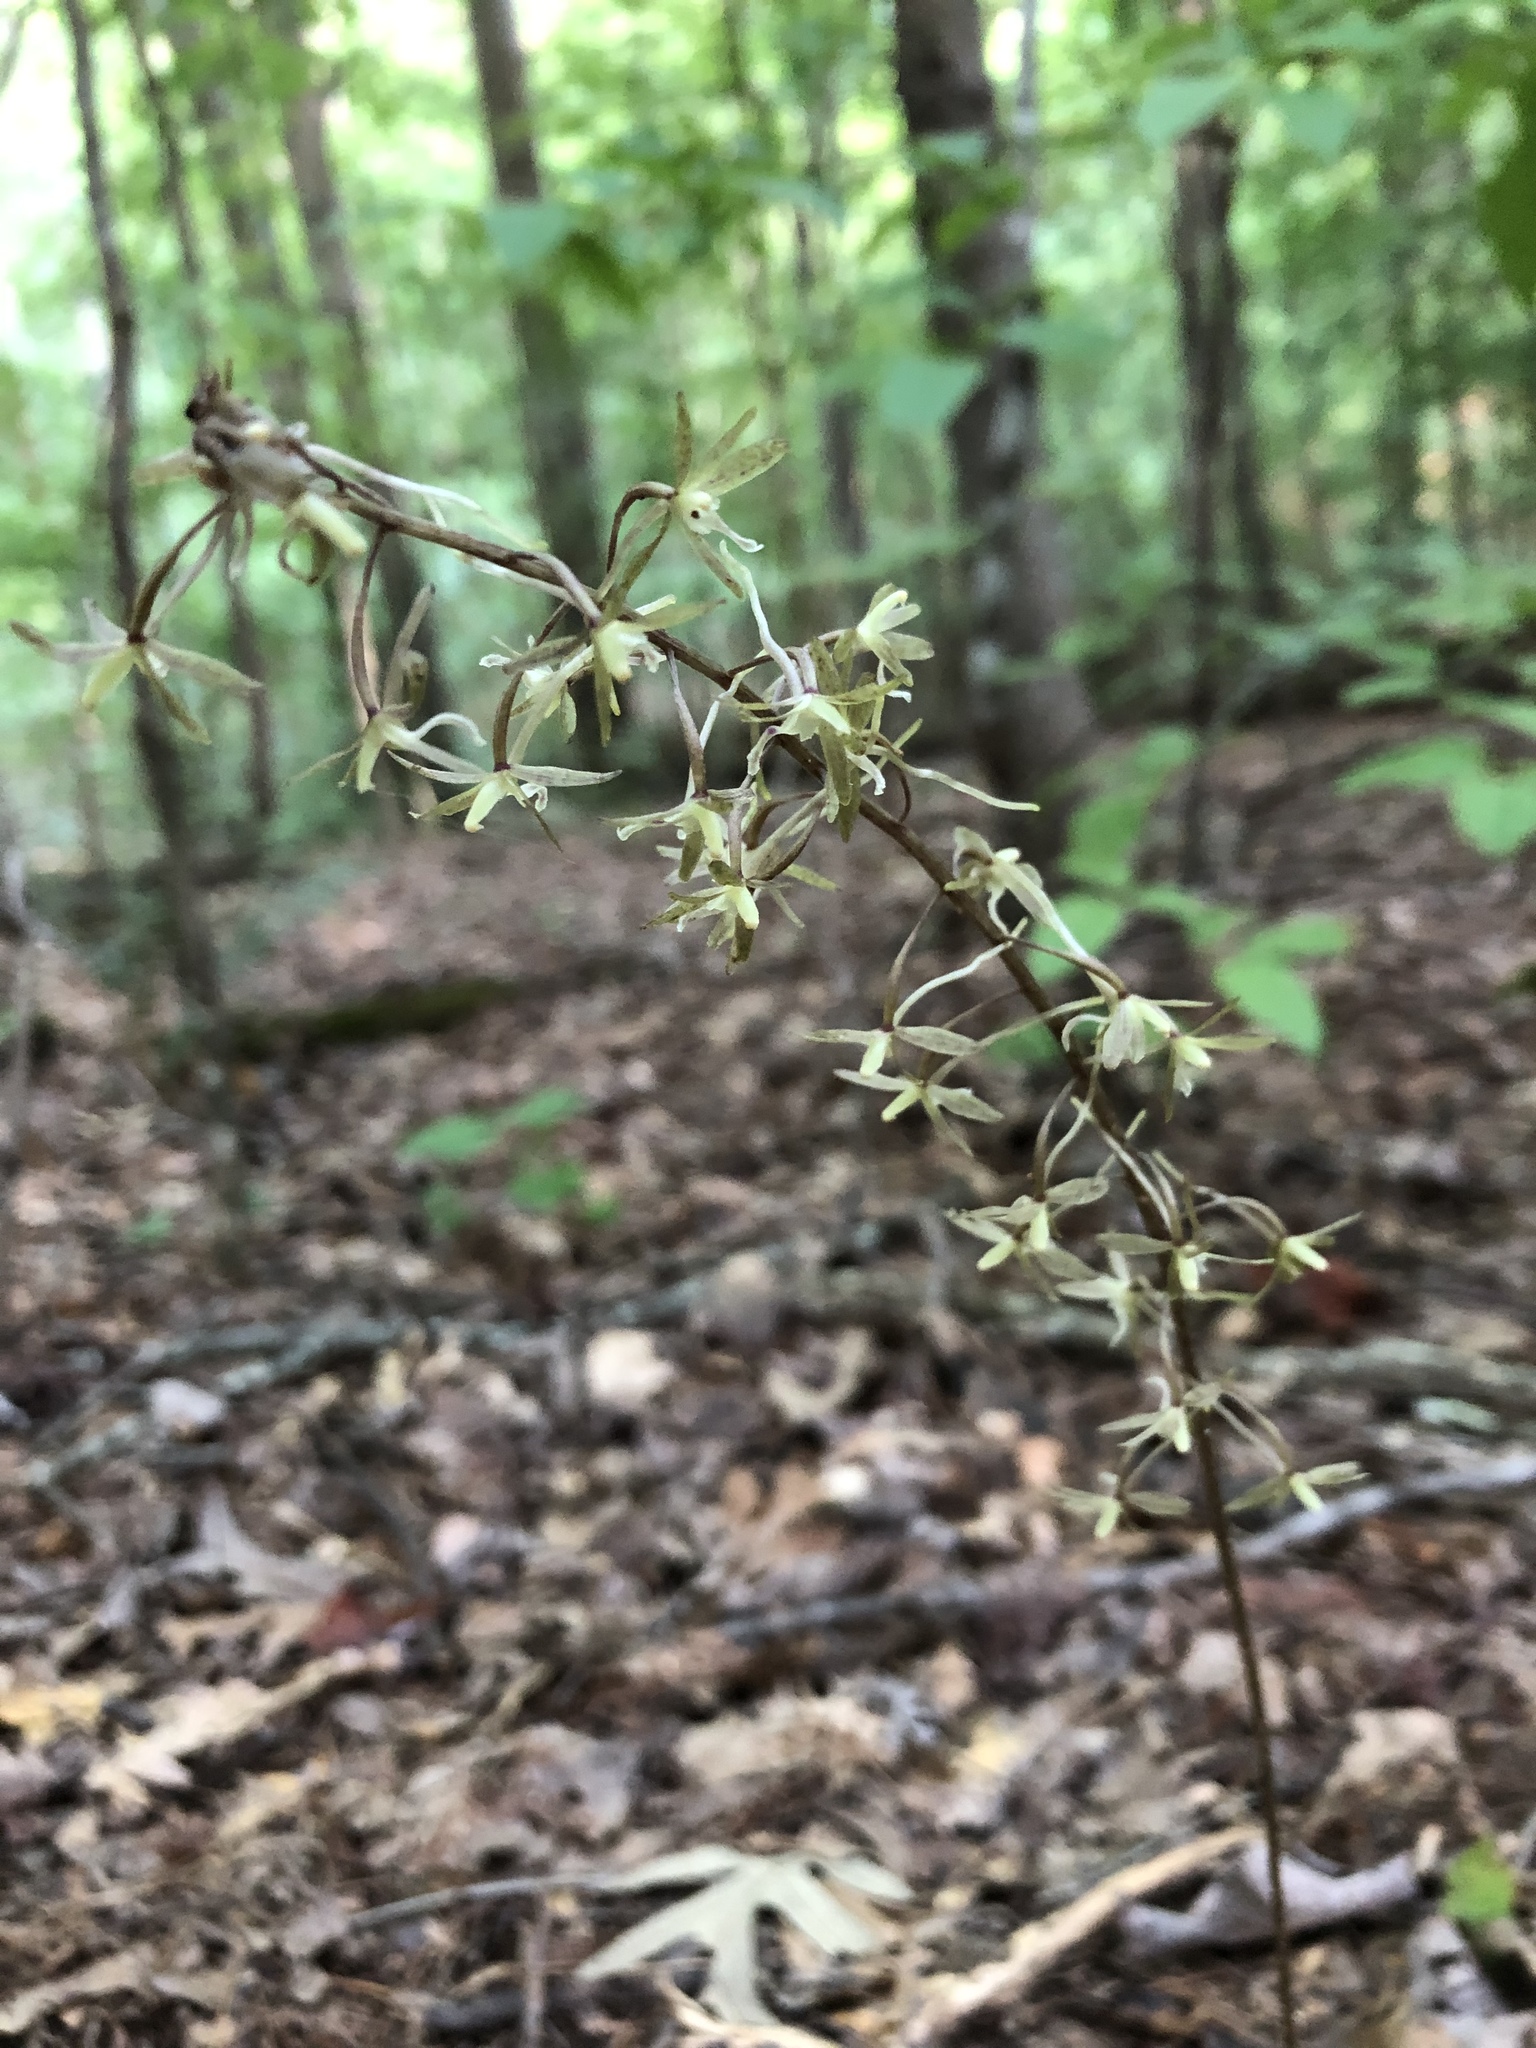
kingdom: Plantae
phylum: Tracheophyta
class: Liliopsida
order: Asparagales
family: Orchidaceae
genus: Tipularia
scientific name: Tipularia discolor
